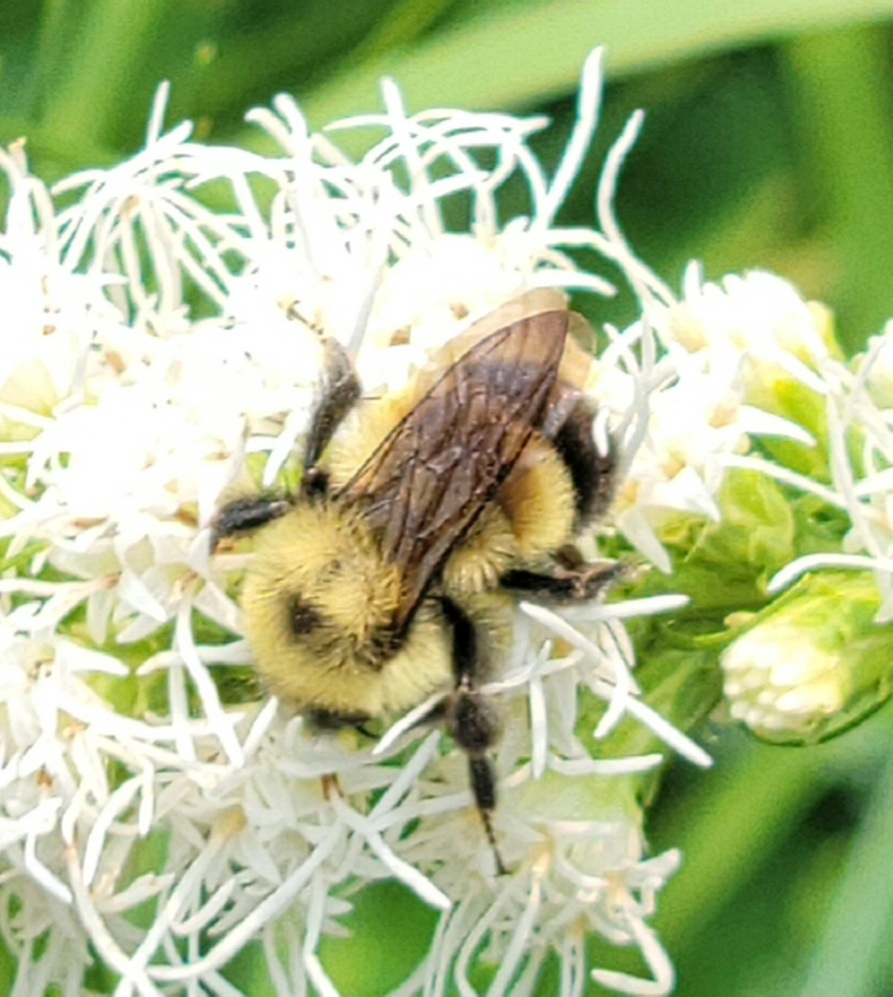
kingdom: Animalia
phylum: Arthropoda
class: Insecta
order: Hymenoptera
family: Apidae
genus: Bombus
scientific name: Bombus affinis
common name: Rusty patched bumble bee
